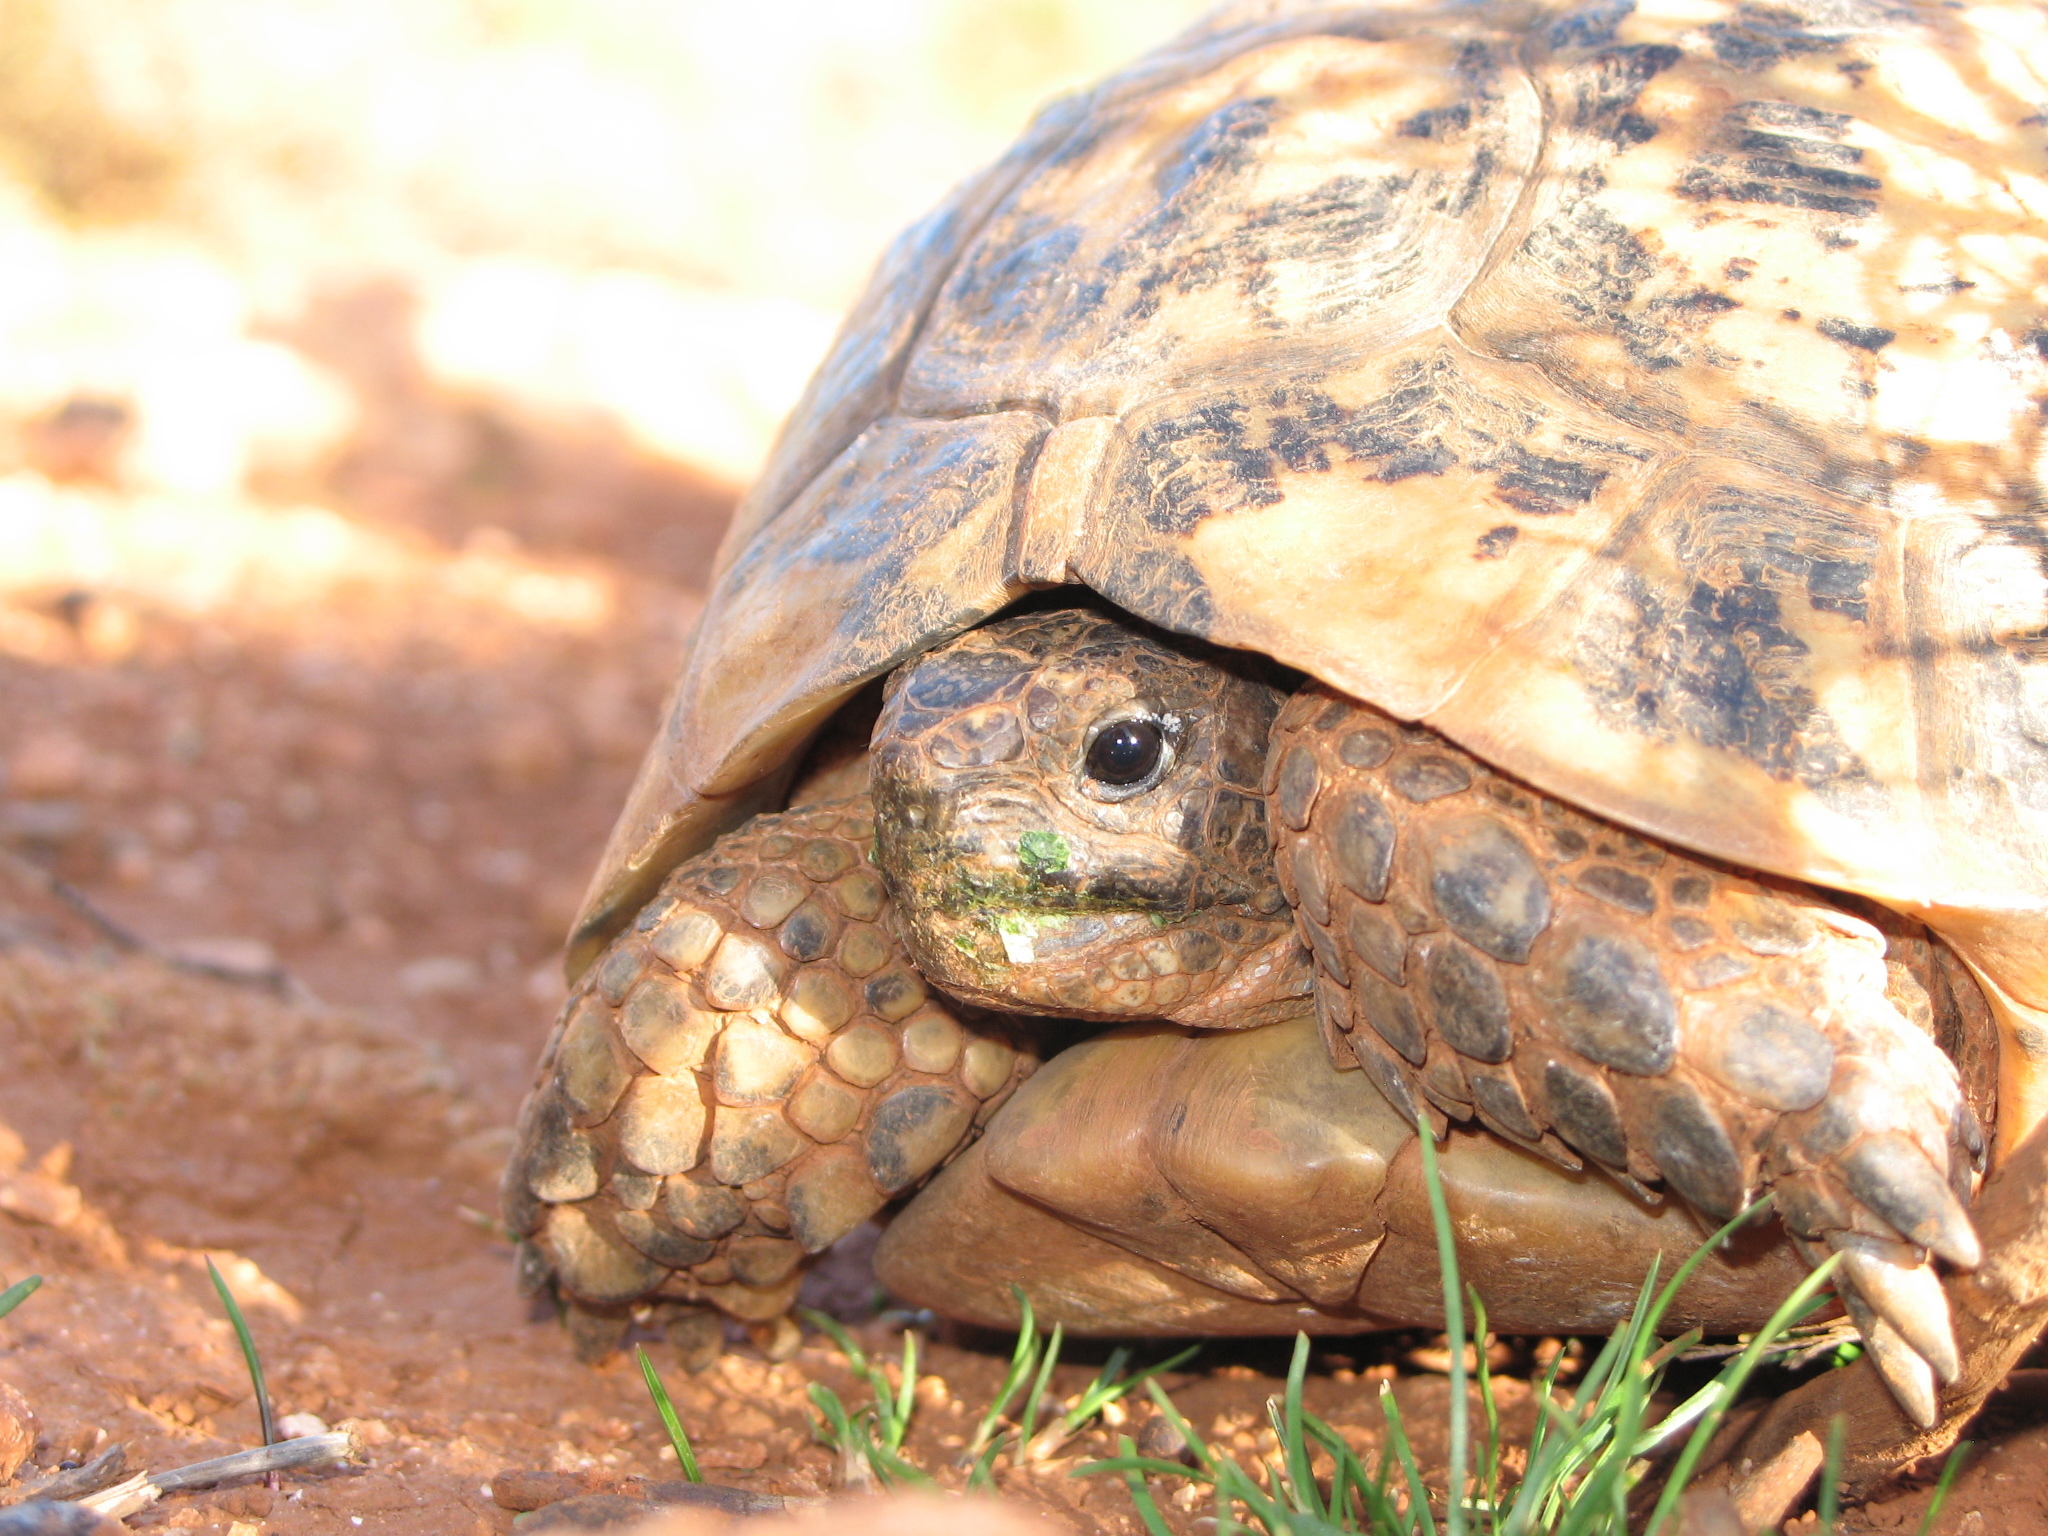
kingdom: Animalia
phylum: Chordata
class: Testudines
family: Testudinidae
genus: Testudo
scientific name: Testudo graeca
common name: Common tortoise
